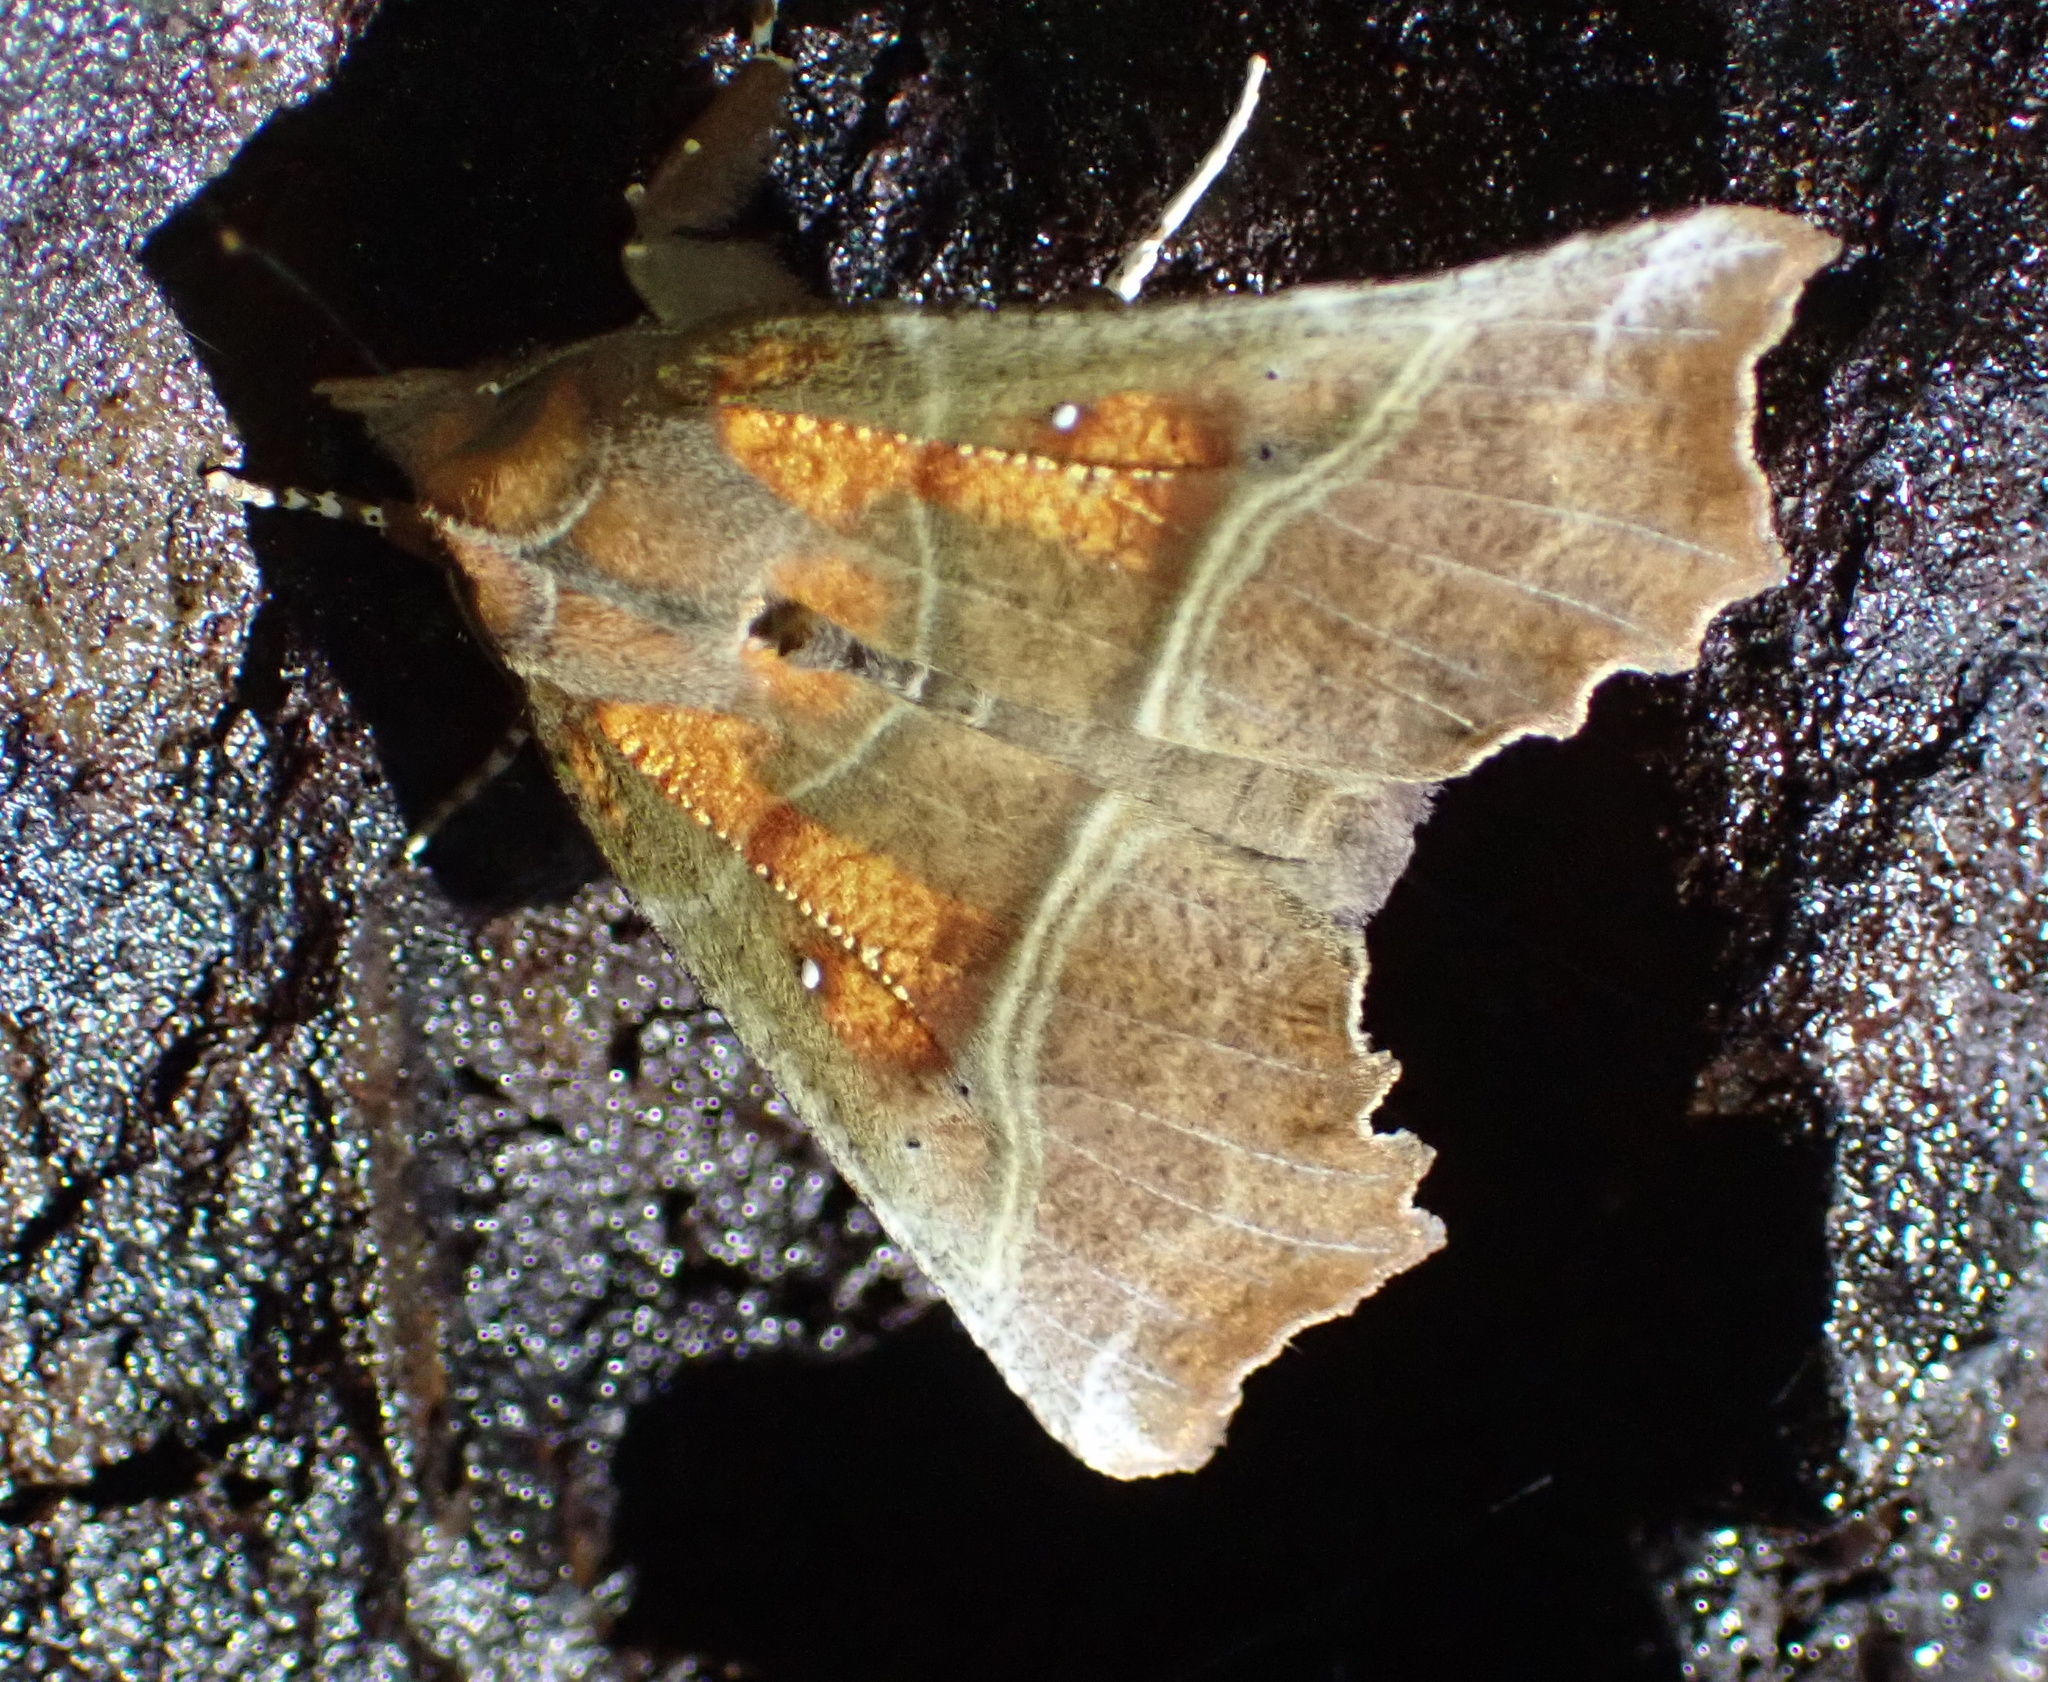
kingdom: Animalia
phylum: Arthropoda
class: Insecta
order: Lepidoptera
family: Erebidae
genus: Scoliopteryx
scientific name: Scoliopteryx libatrix
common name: Herald
